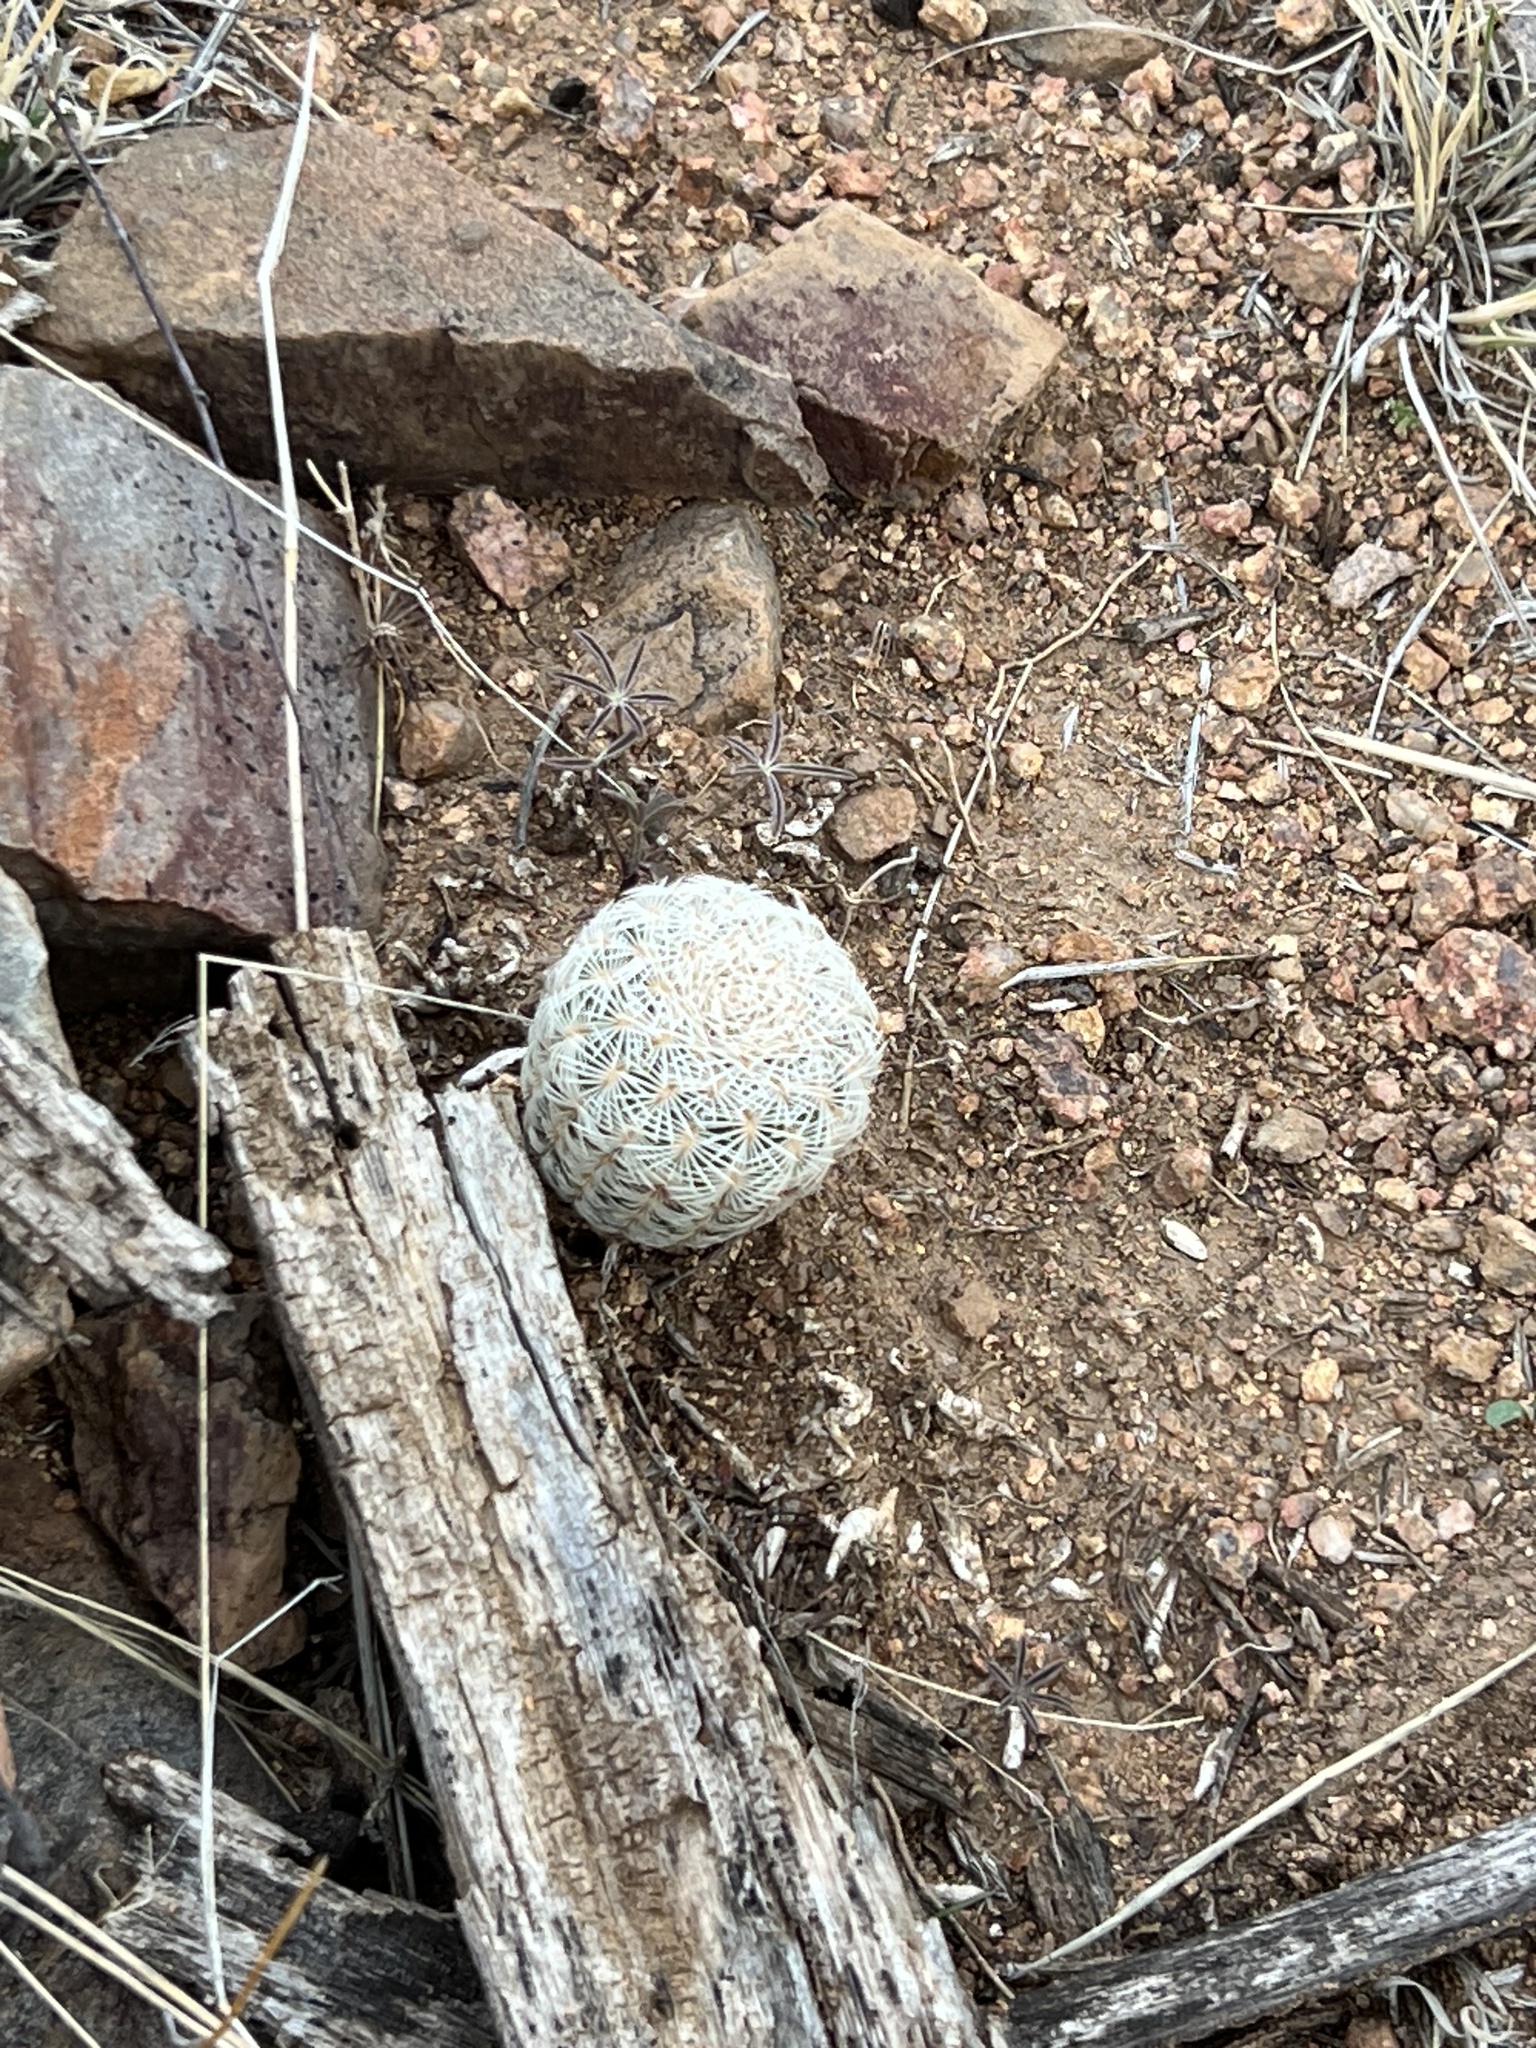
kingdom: Plantae
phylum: Tracheophyta
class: Magnoliopsida
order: Caryophyllales
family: Cactaceae
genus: Echinocereus
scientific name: Echinocereus rigidissimus
